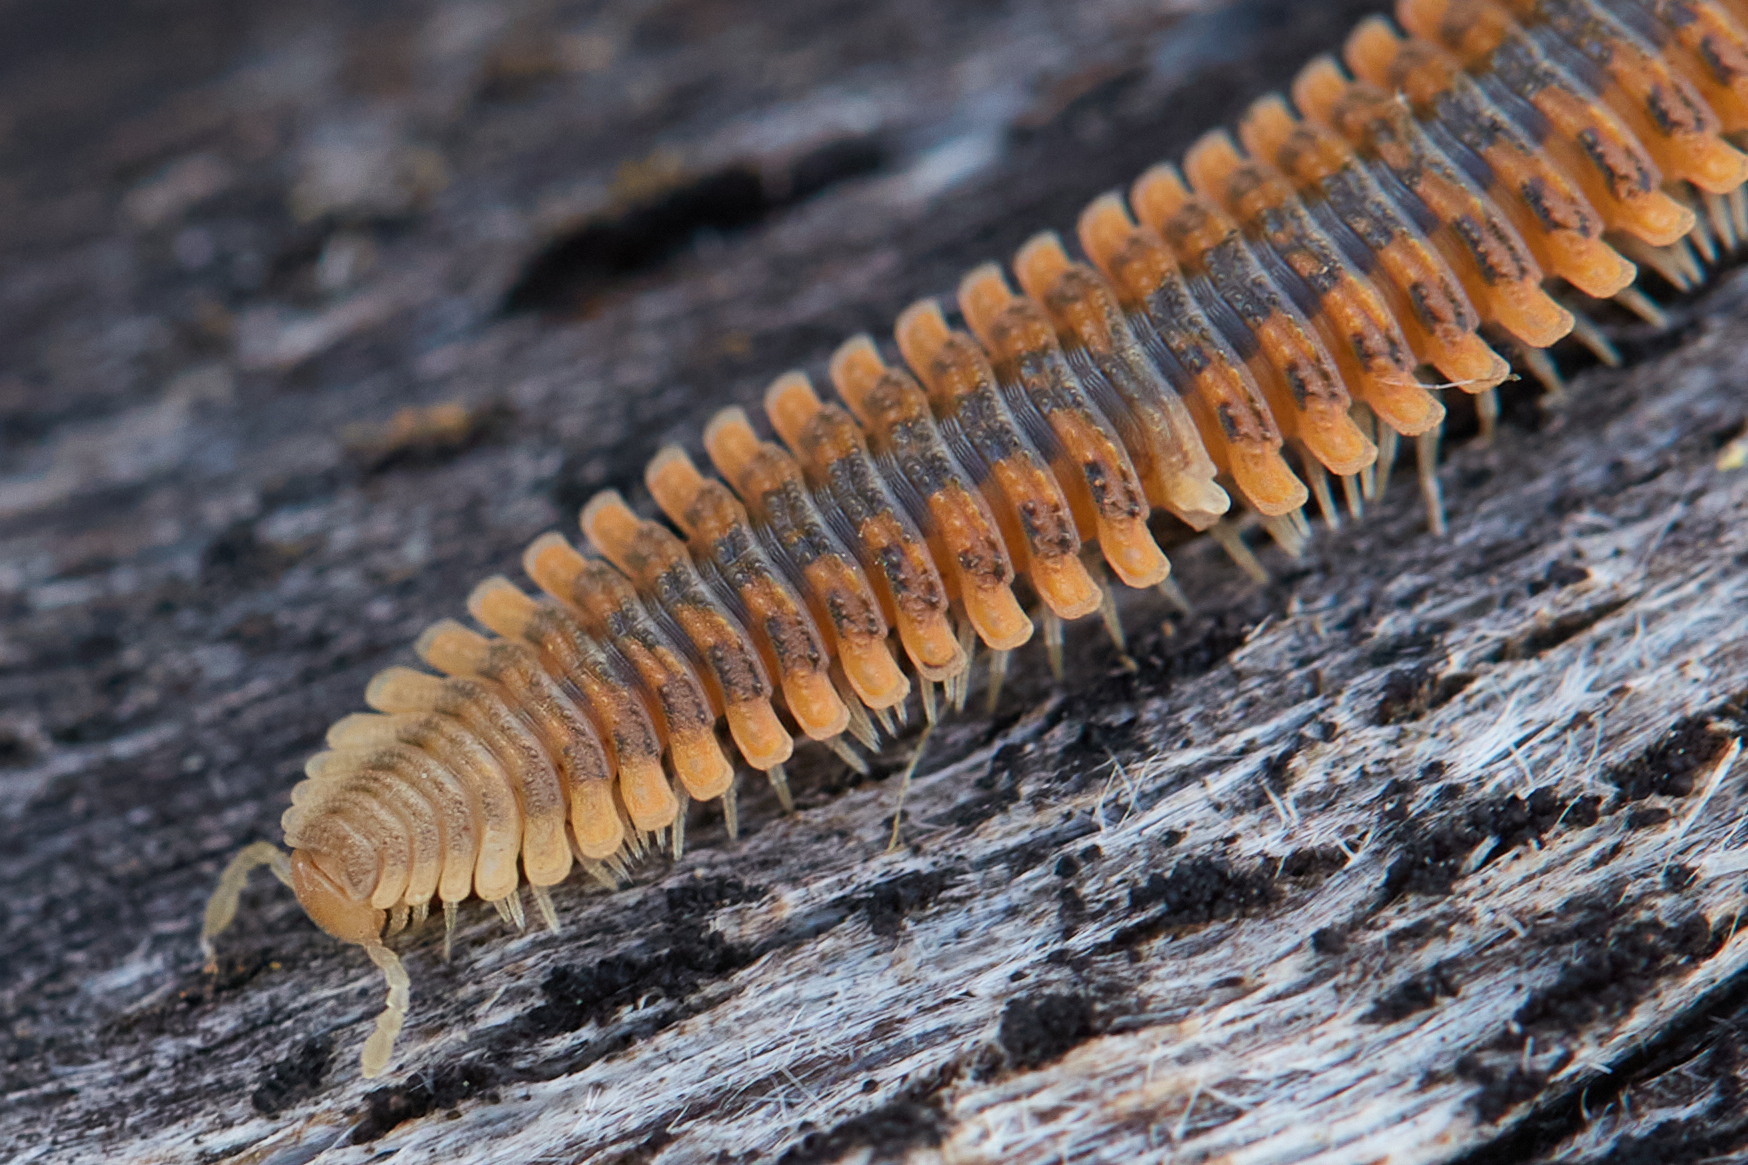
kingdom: Animalia
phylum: Arthropoda
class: Diplopoda
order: Platydesmida
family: Andrognathidae
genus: Brachycybe
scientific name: Brachycybe producta
